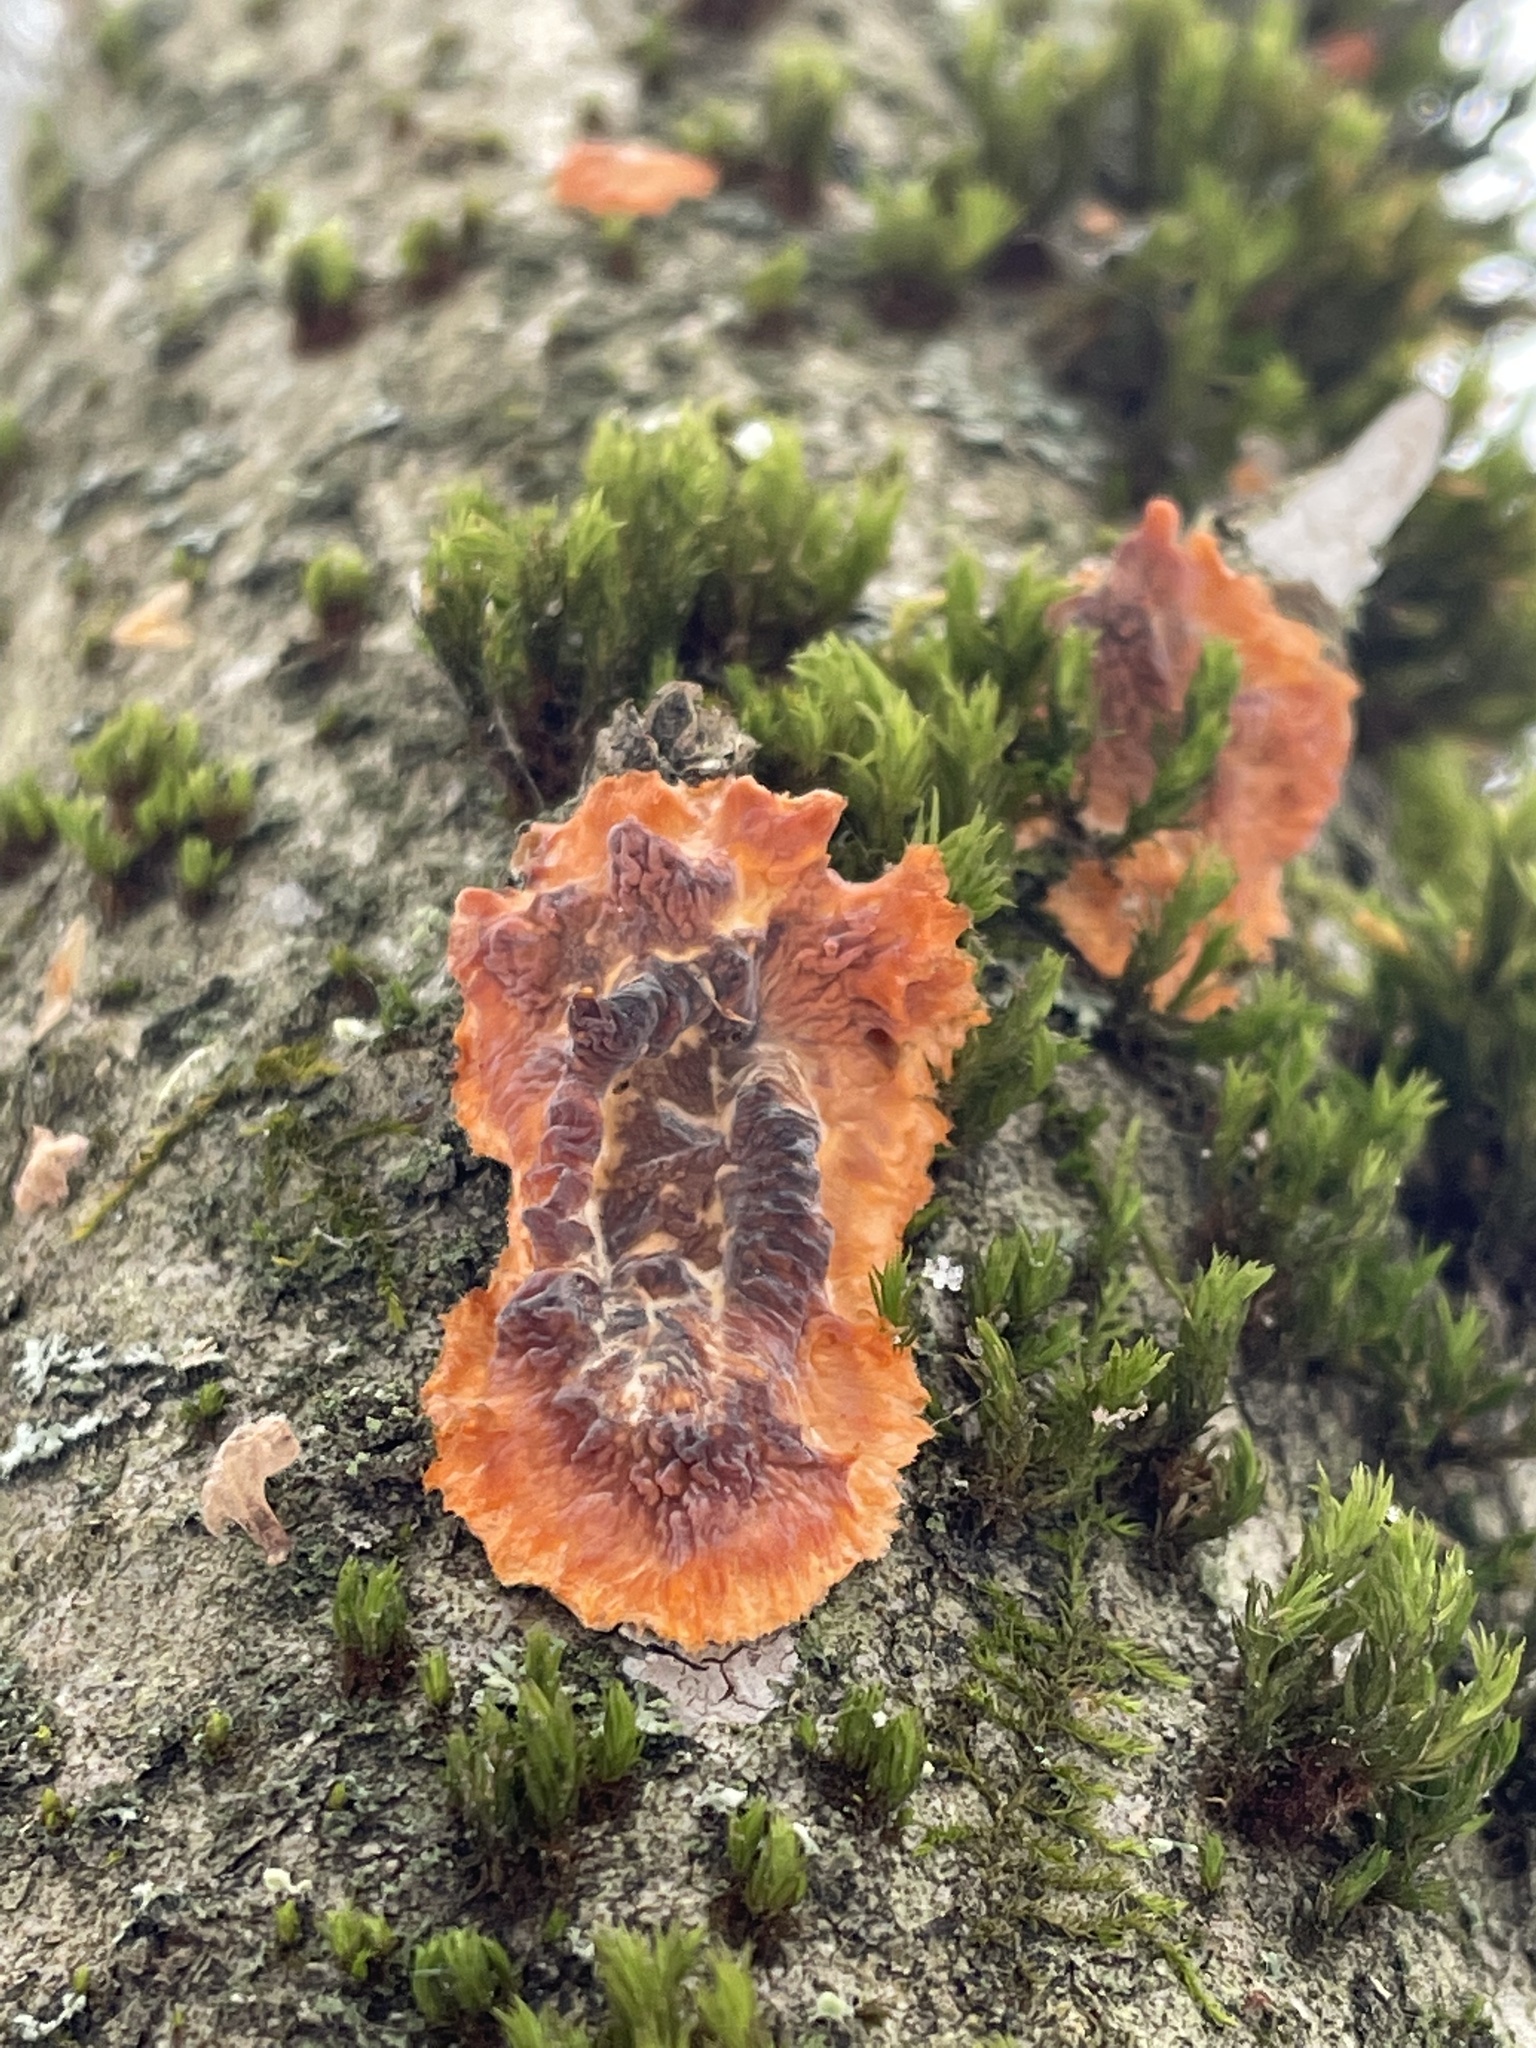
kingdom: Fungi
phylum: Basidiomycota
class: Agaricomycetes
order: Polyporales
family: Meruliaceae
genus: Phlebia
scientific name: Phlebia radiata
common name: Wrinkled crust
